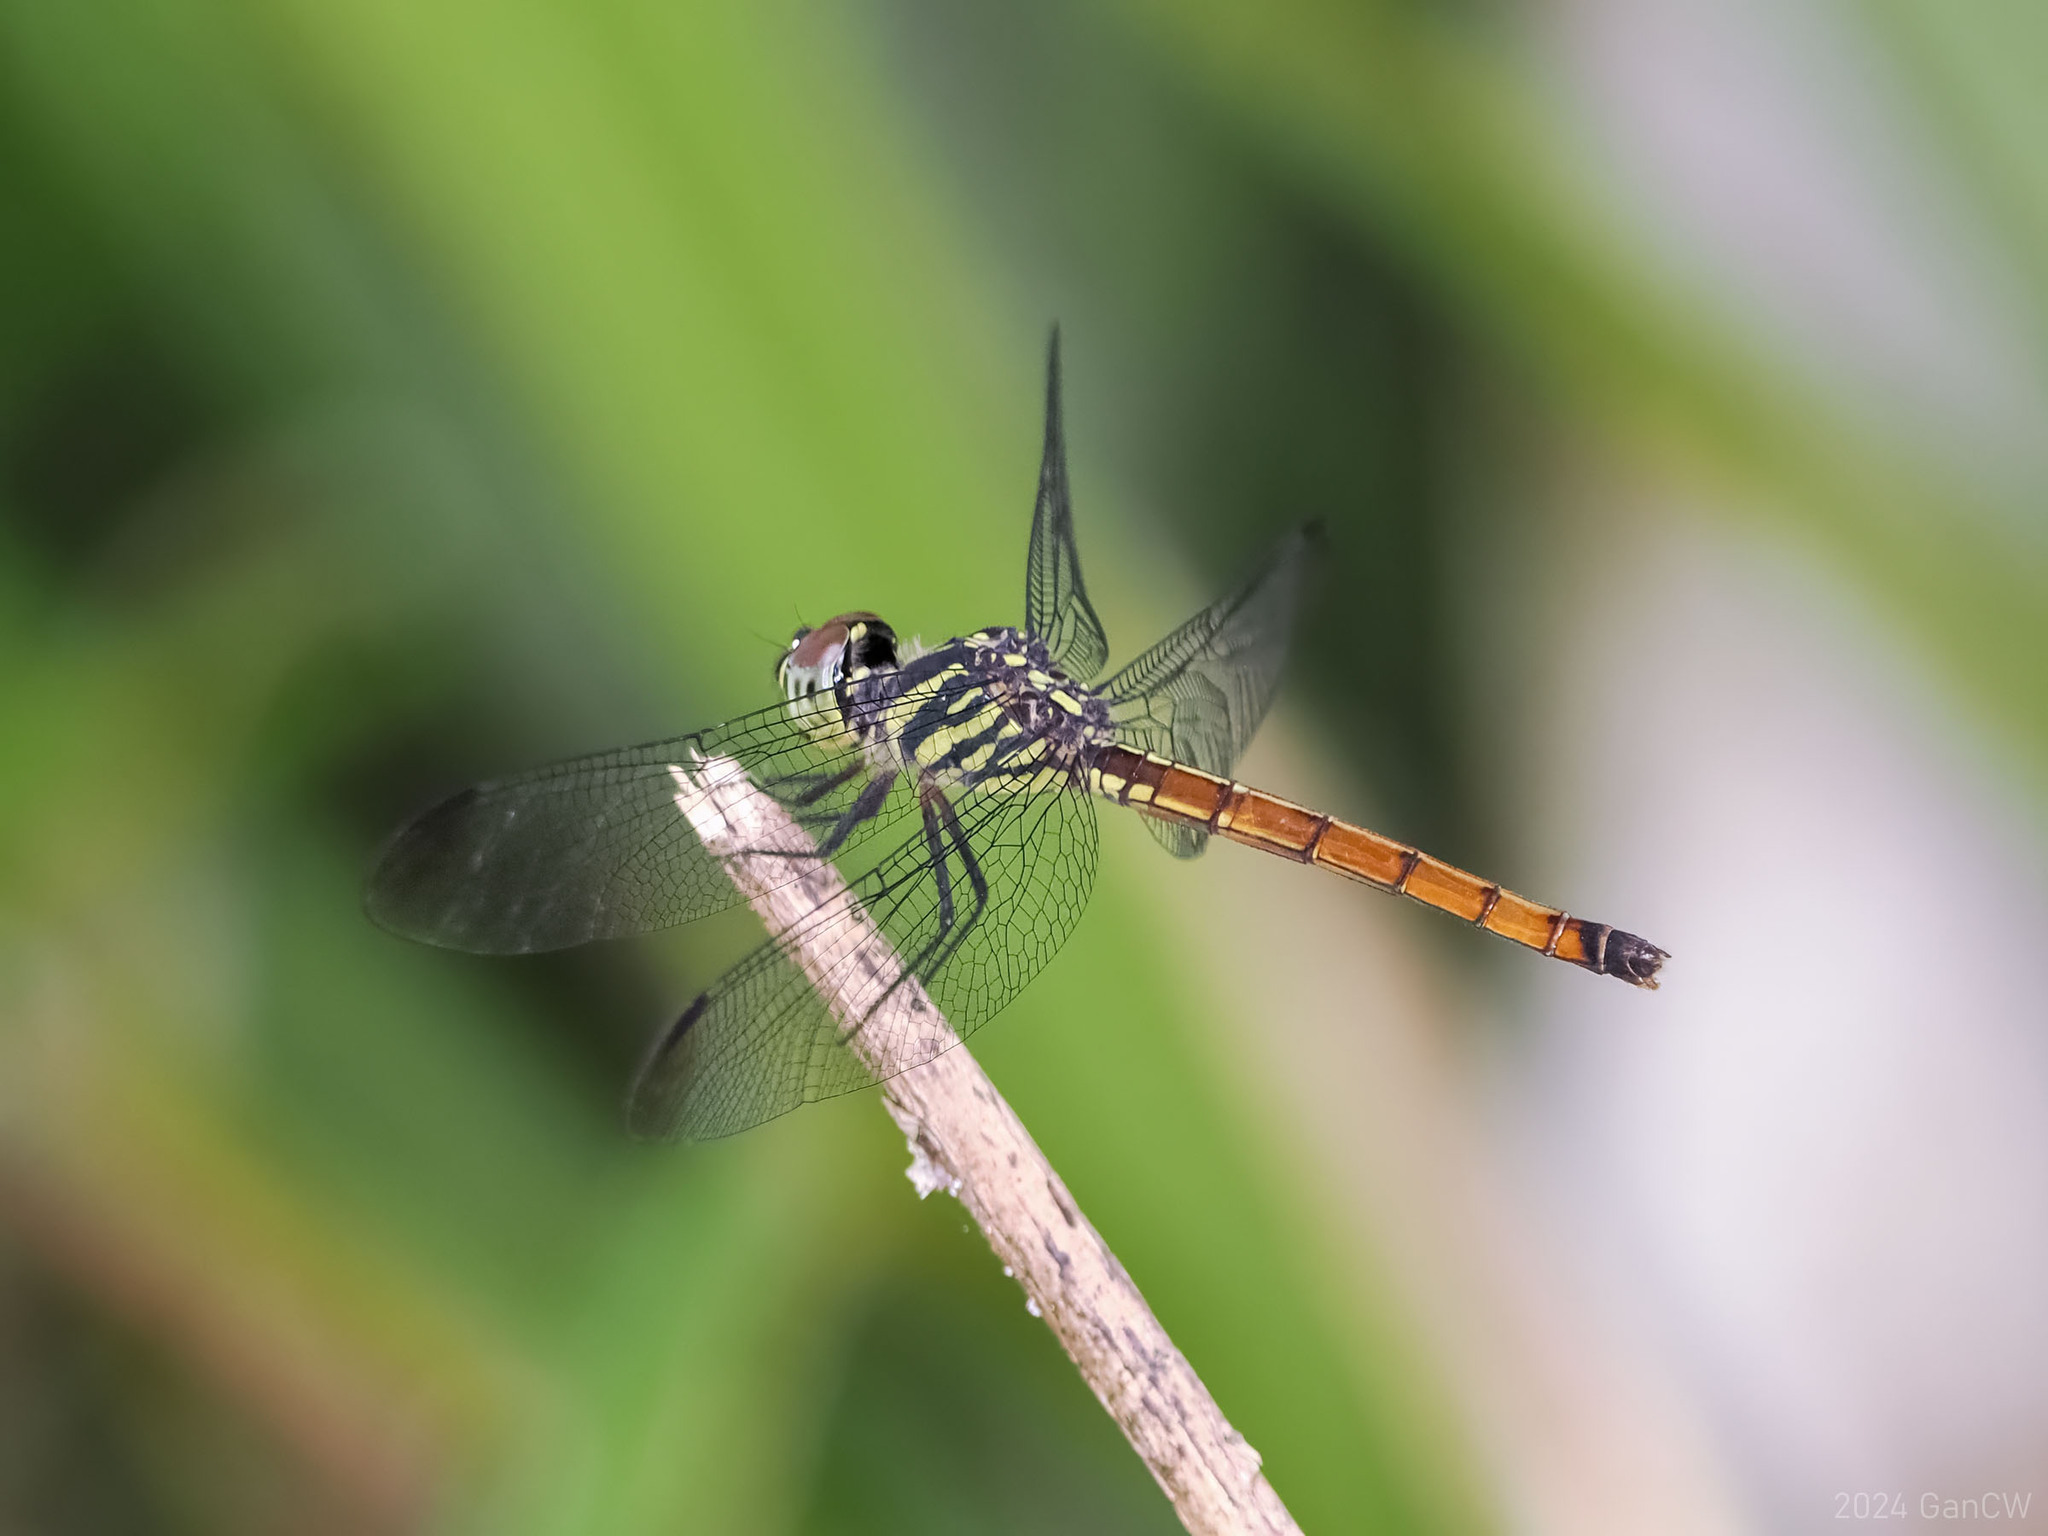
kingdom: Animalia
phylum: Arthropoda
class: Insecta
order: Odonata
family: Libellulidae
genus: Lathrecista
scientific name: Lathrecista asiatica
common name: Scarlet grenadier
